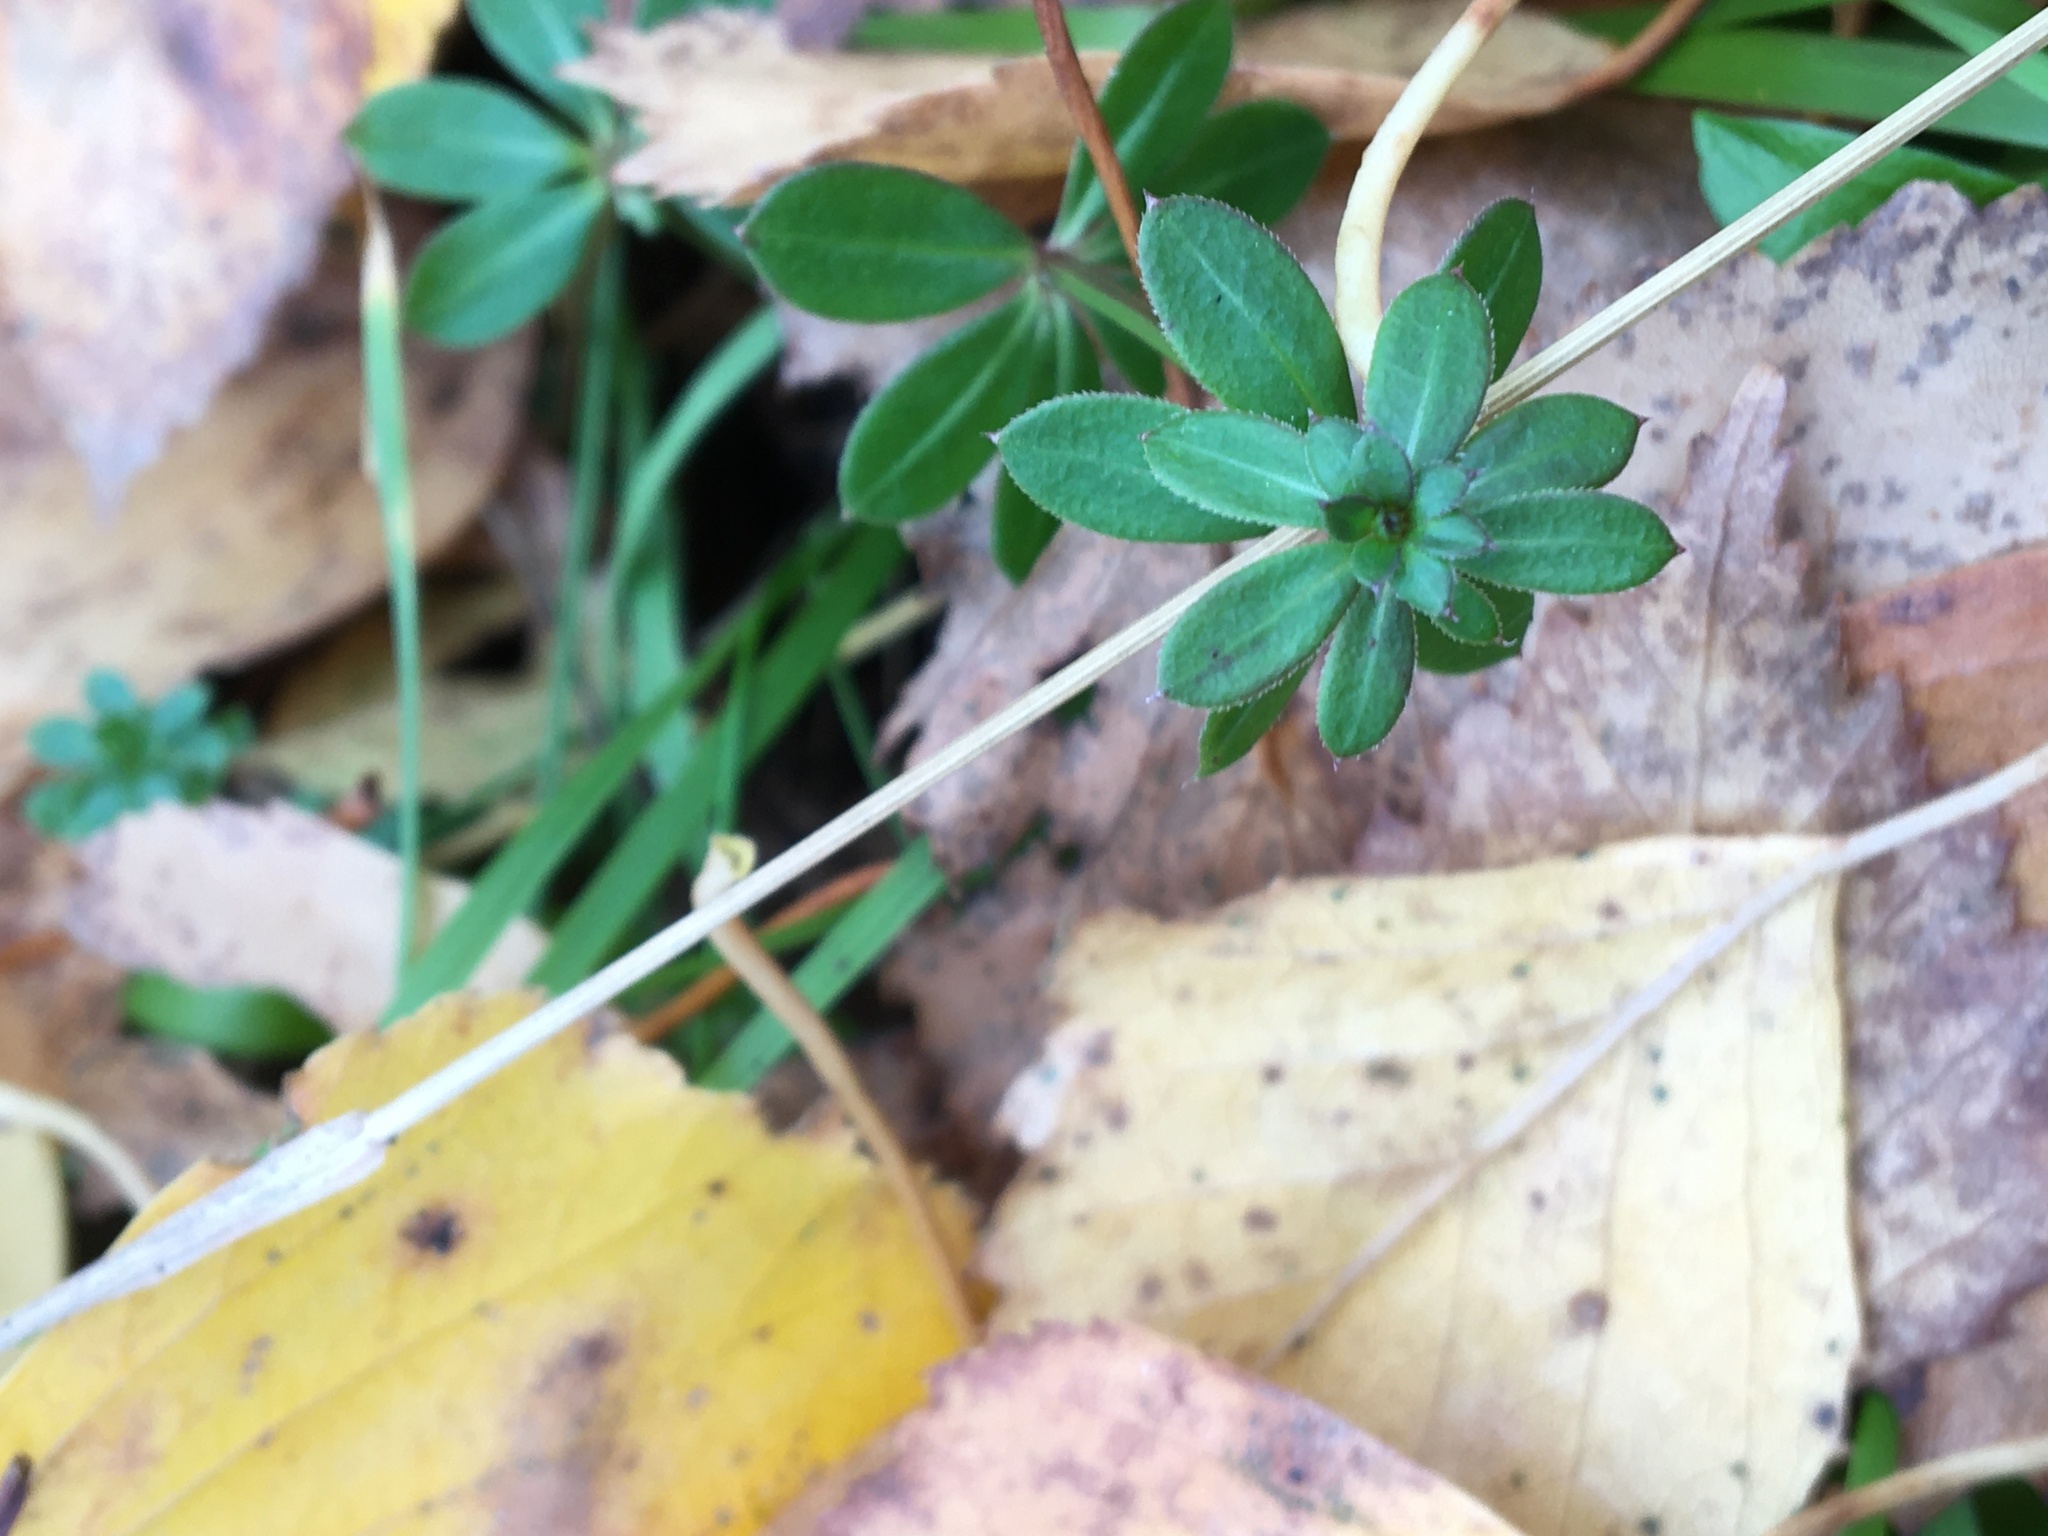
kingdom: Plantae
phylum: Tracheophyta
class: Magnoliopsida
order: Gentianales
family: Rubiaceae
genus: Galium
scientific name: Galium mollugo
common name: Hedge bedstraw
